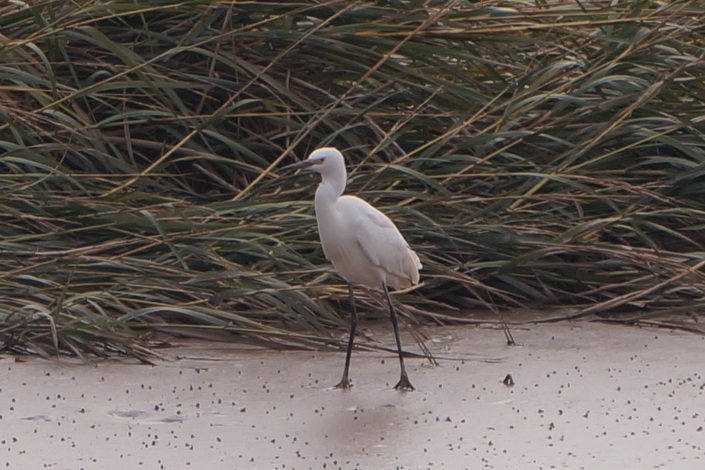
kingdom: Animalia
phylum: Chordata
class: Aves
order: Pelecaniformes
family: Ardeidae
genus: Egretta
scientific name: Egretta garzetta
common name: Little egret
